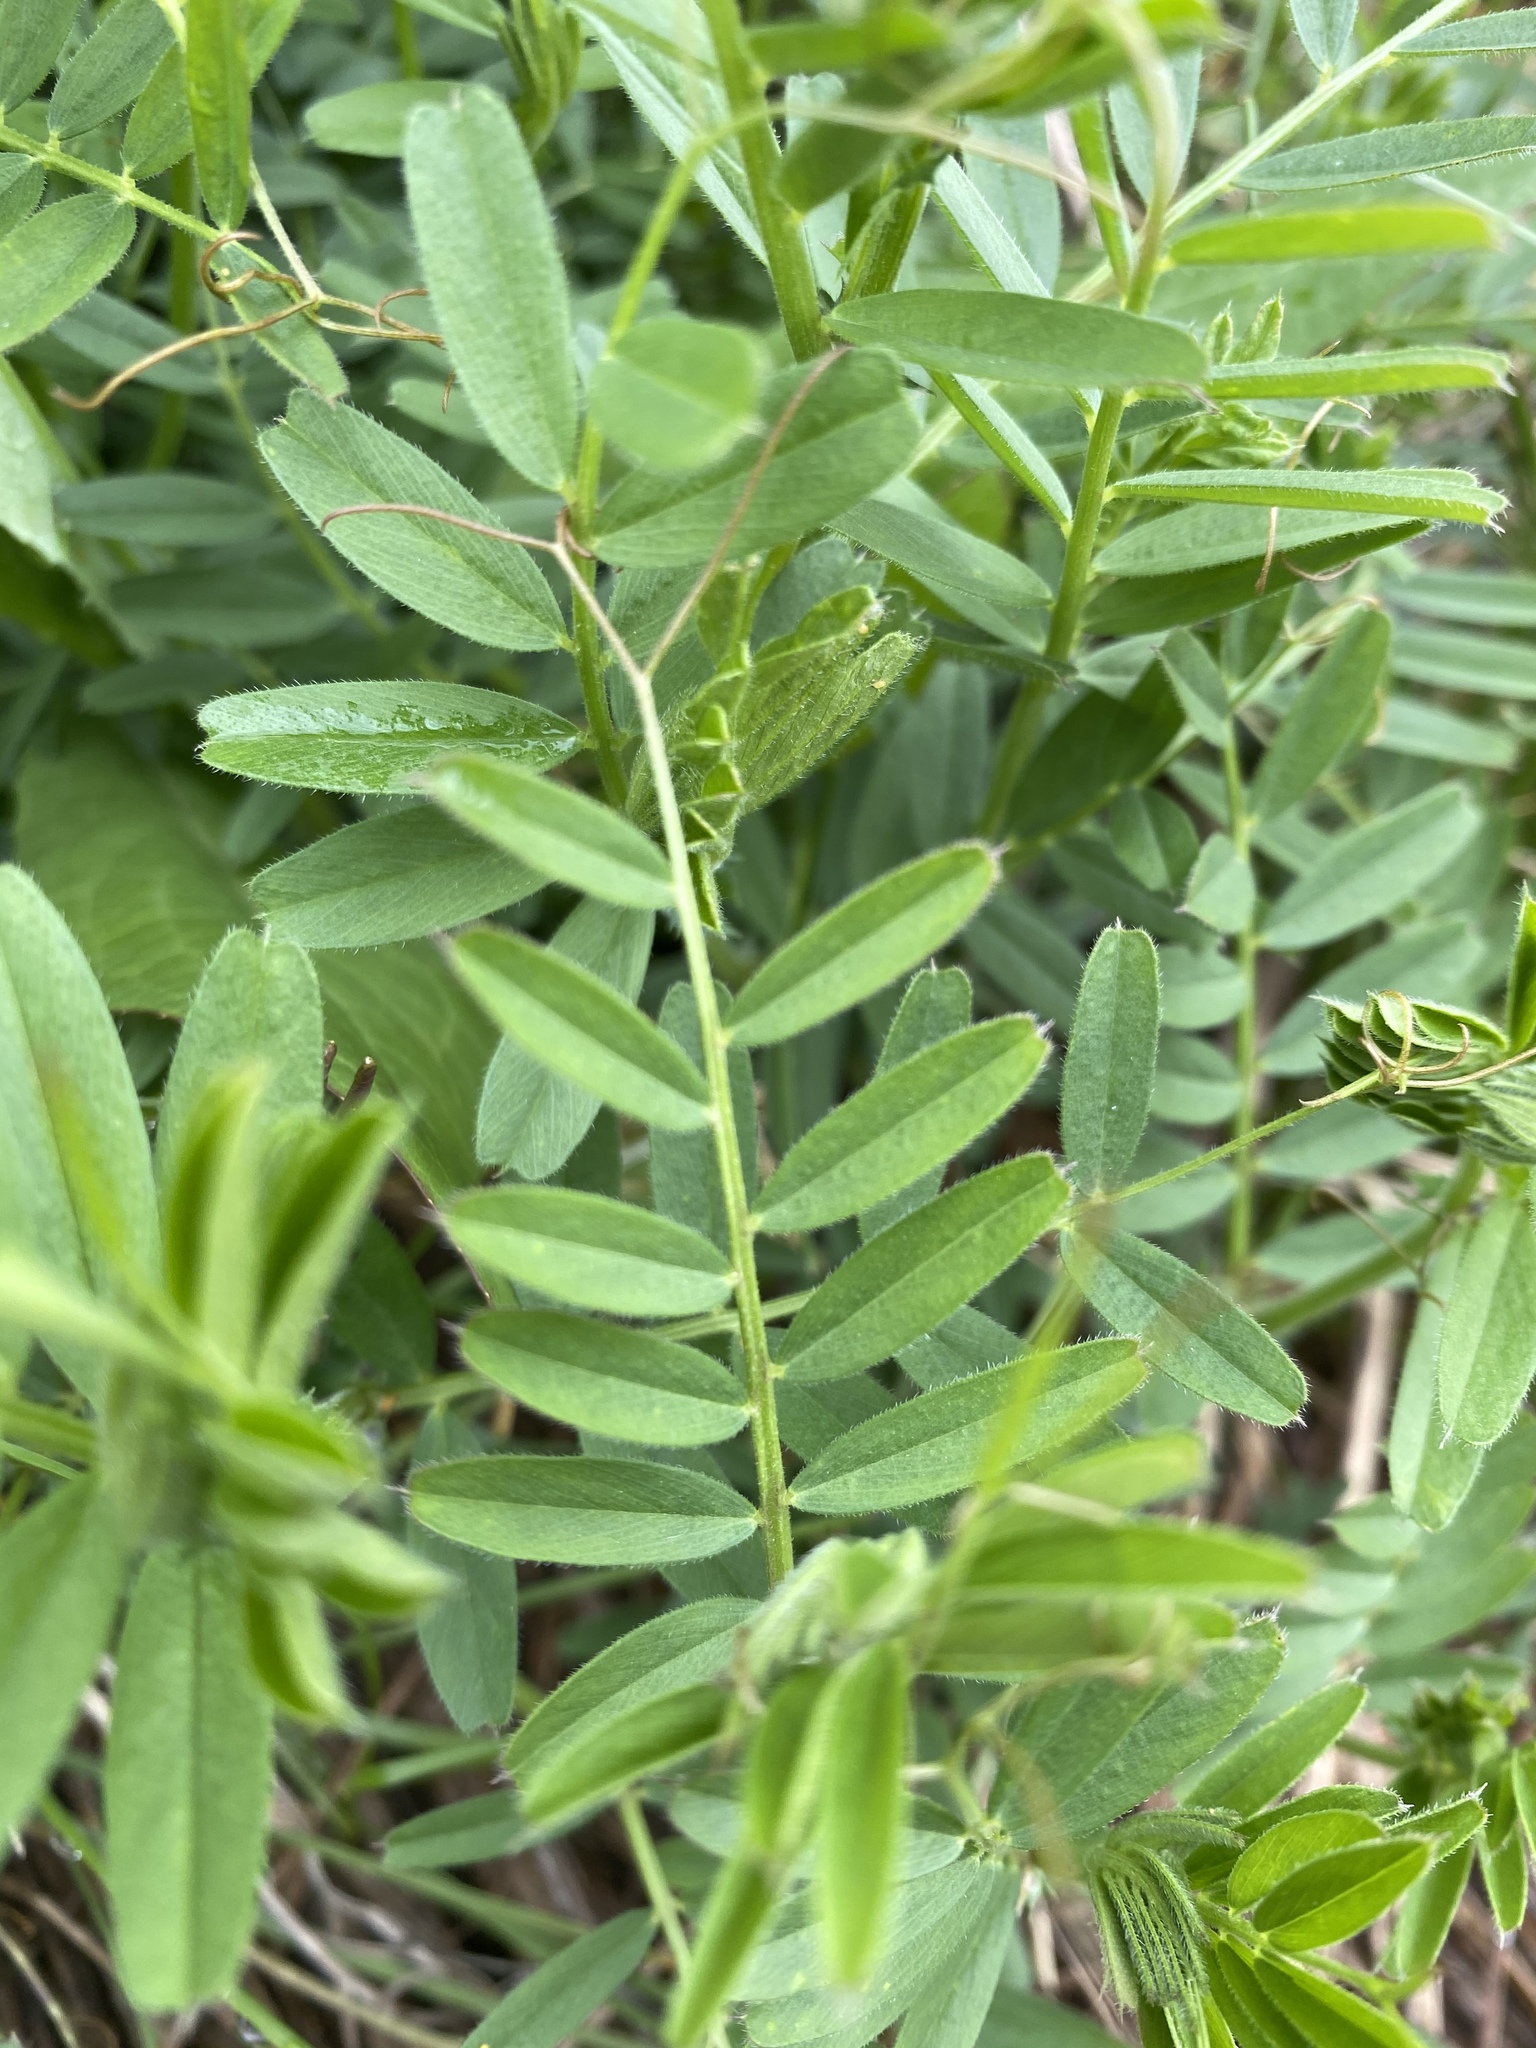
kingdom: Plantae
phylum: Tracheophyta
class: Magnoliopsida
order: Fabales
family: Fabaceae
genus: Vicia
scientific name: Vicia sativa
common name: Garden vetch
